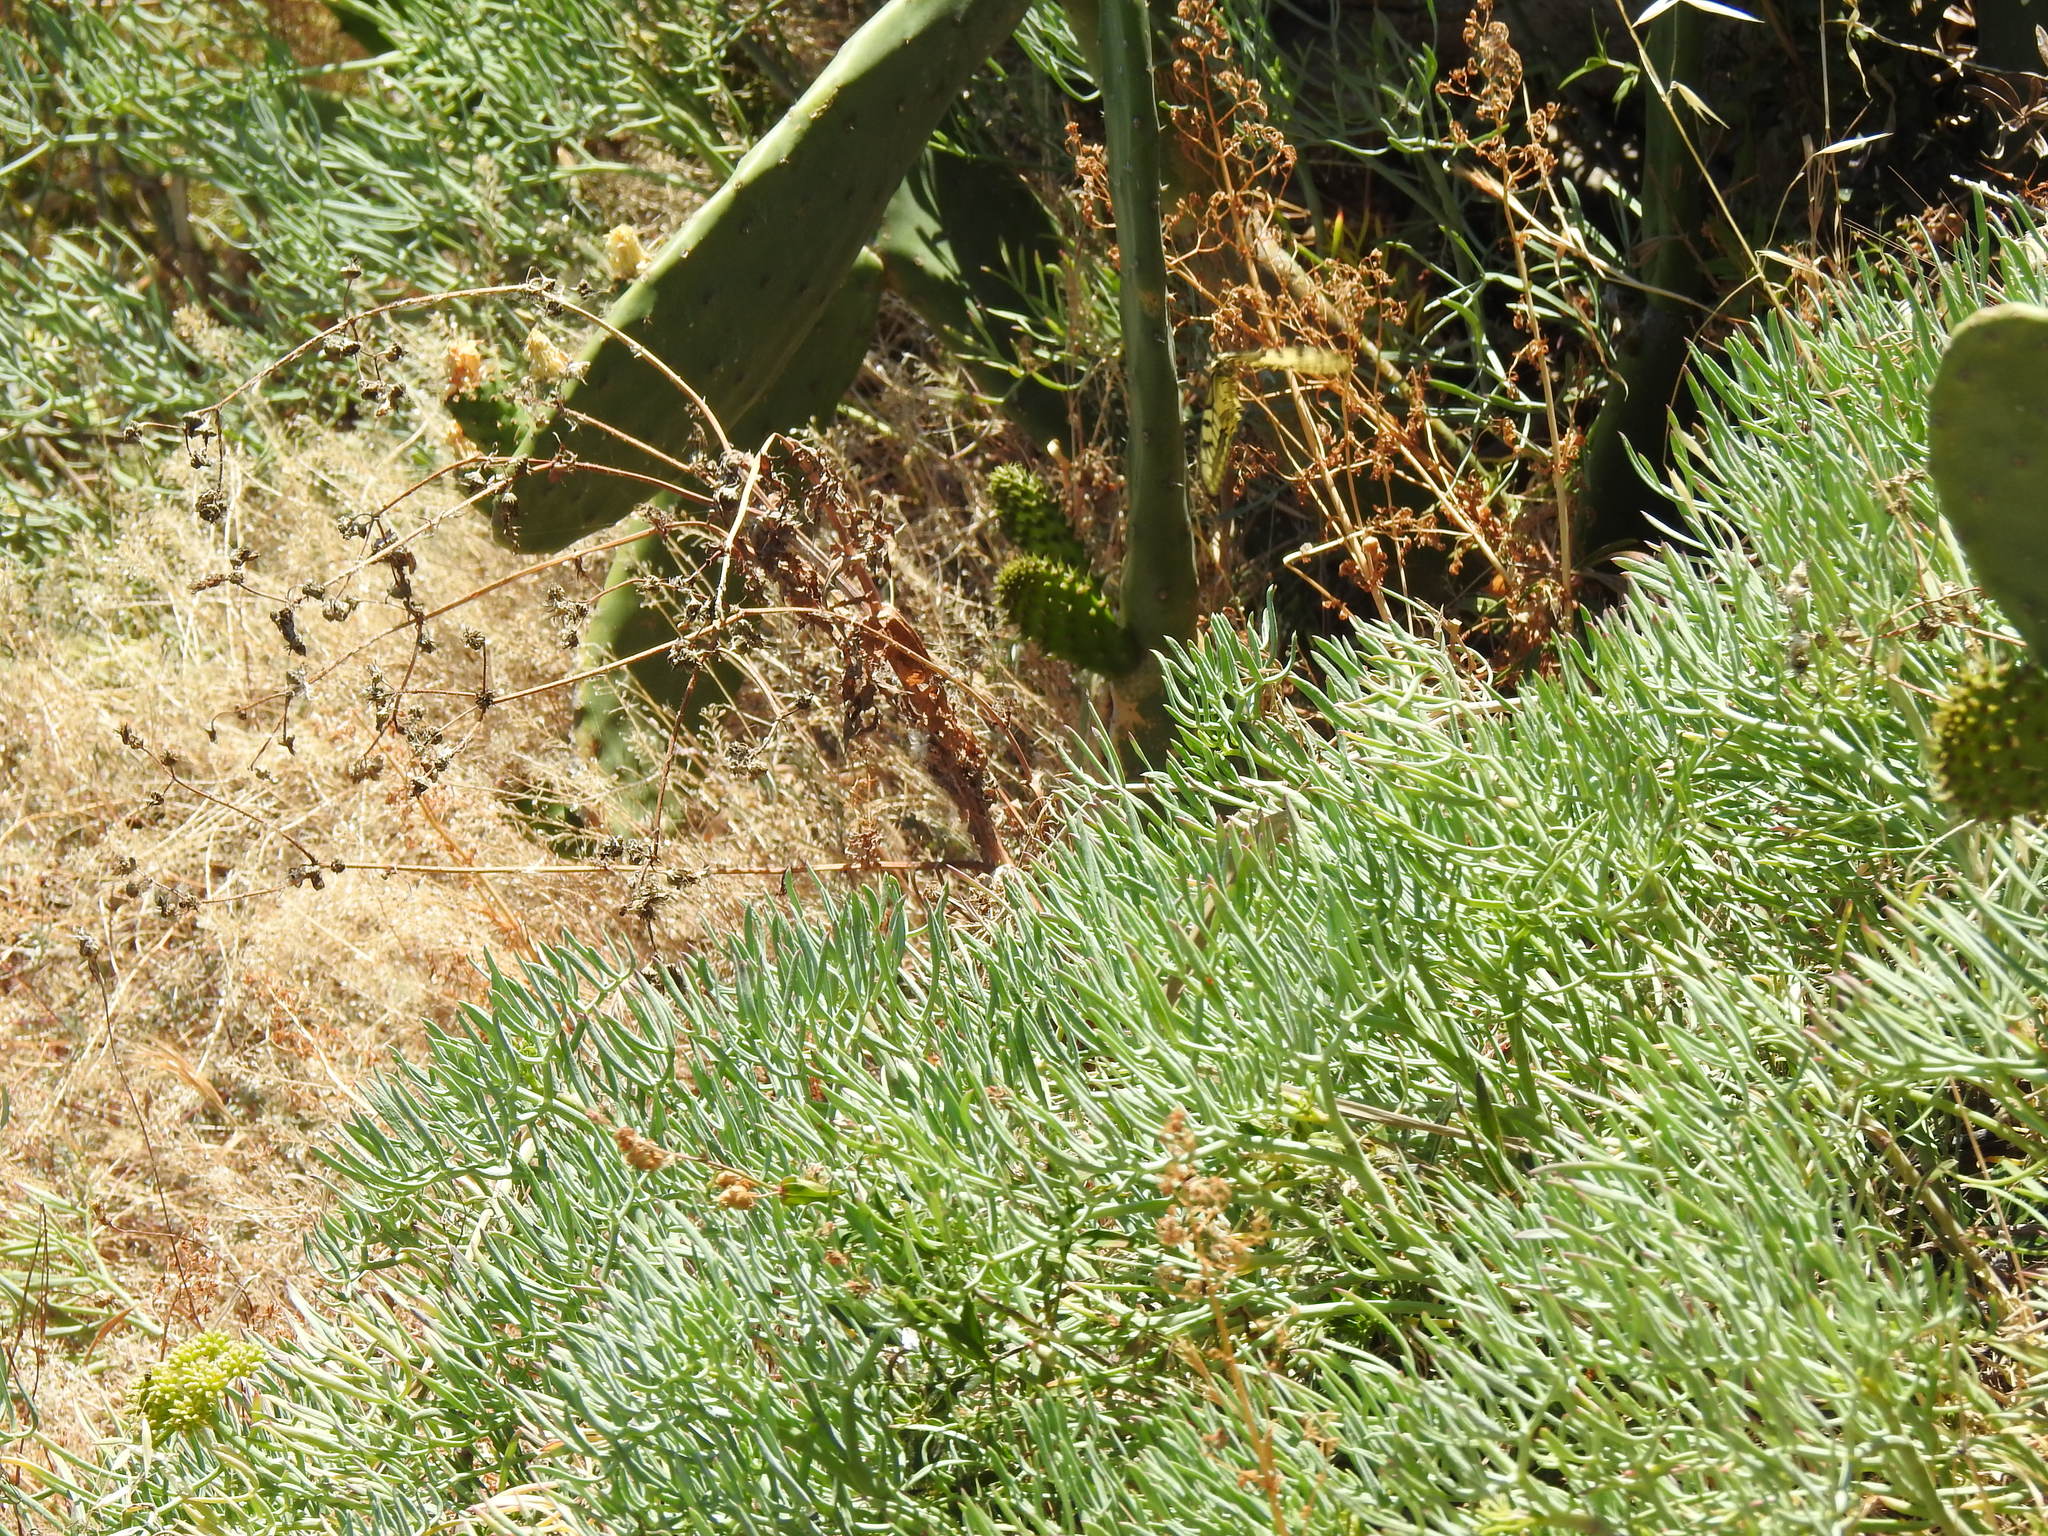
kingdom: Plantae
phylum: Tracheophyta
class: Magnoliopsida
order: Apiales
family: Apiaceae
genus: Crithmum
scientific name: Crithmum maritimum
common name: Rock samphire
